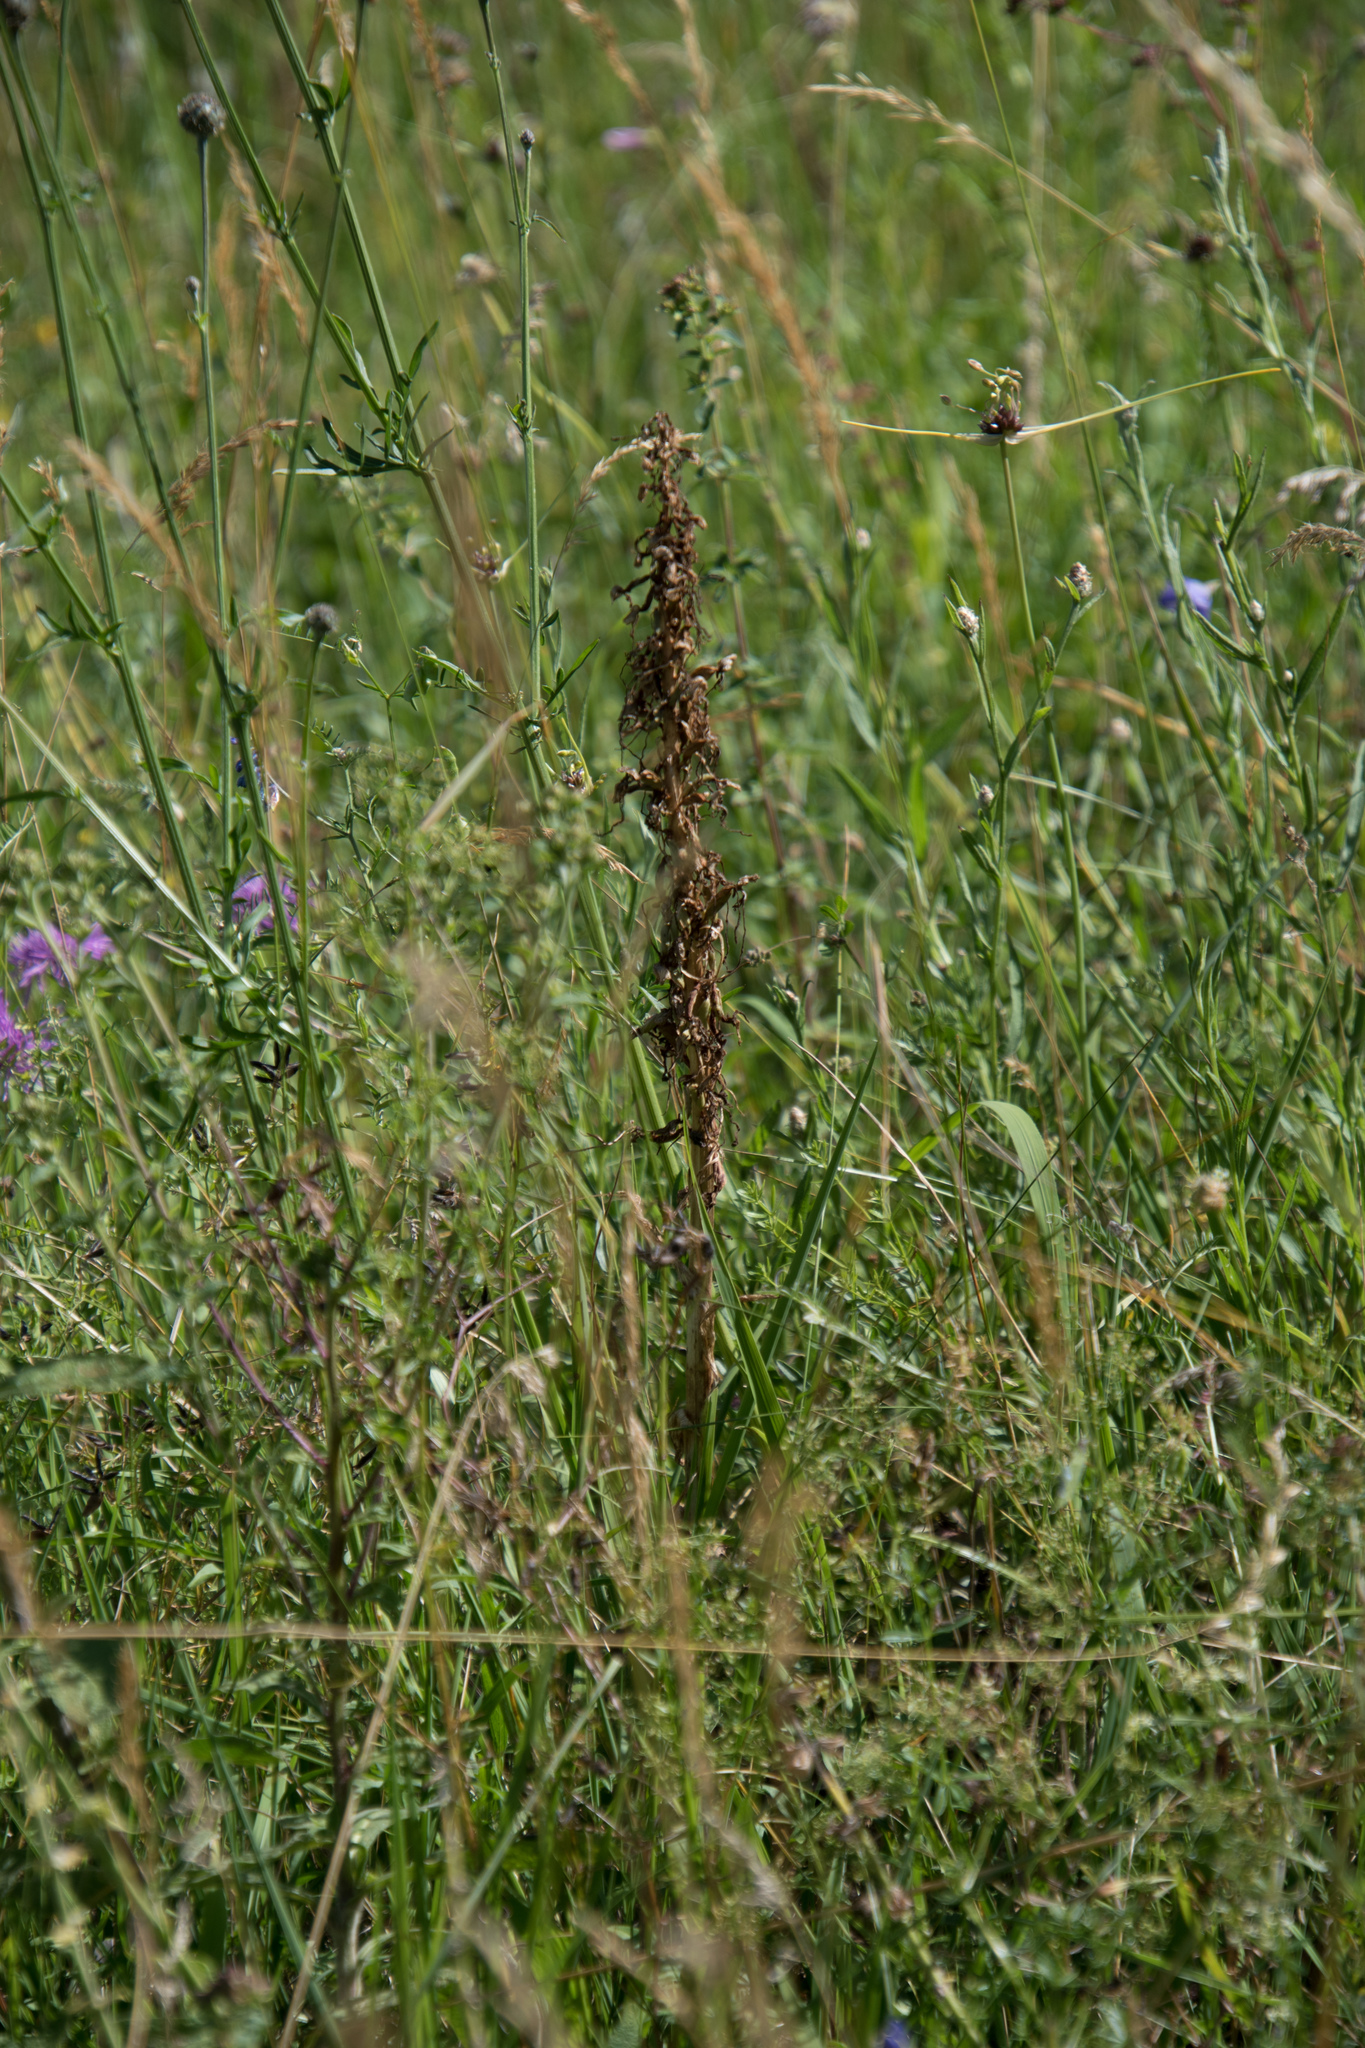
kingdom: Plantae
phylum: Tracheophyta
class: Liliopsida
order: Asparagales
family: Orchidaceae
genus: Himantoglossum
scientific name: Himantoglossum hircinum
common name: Lizard orchid
